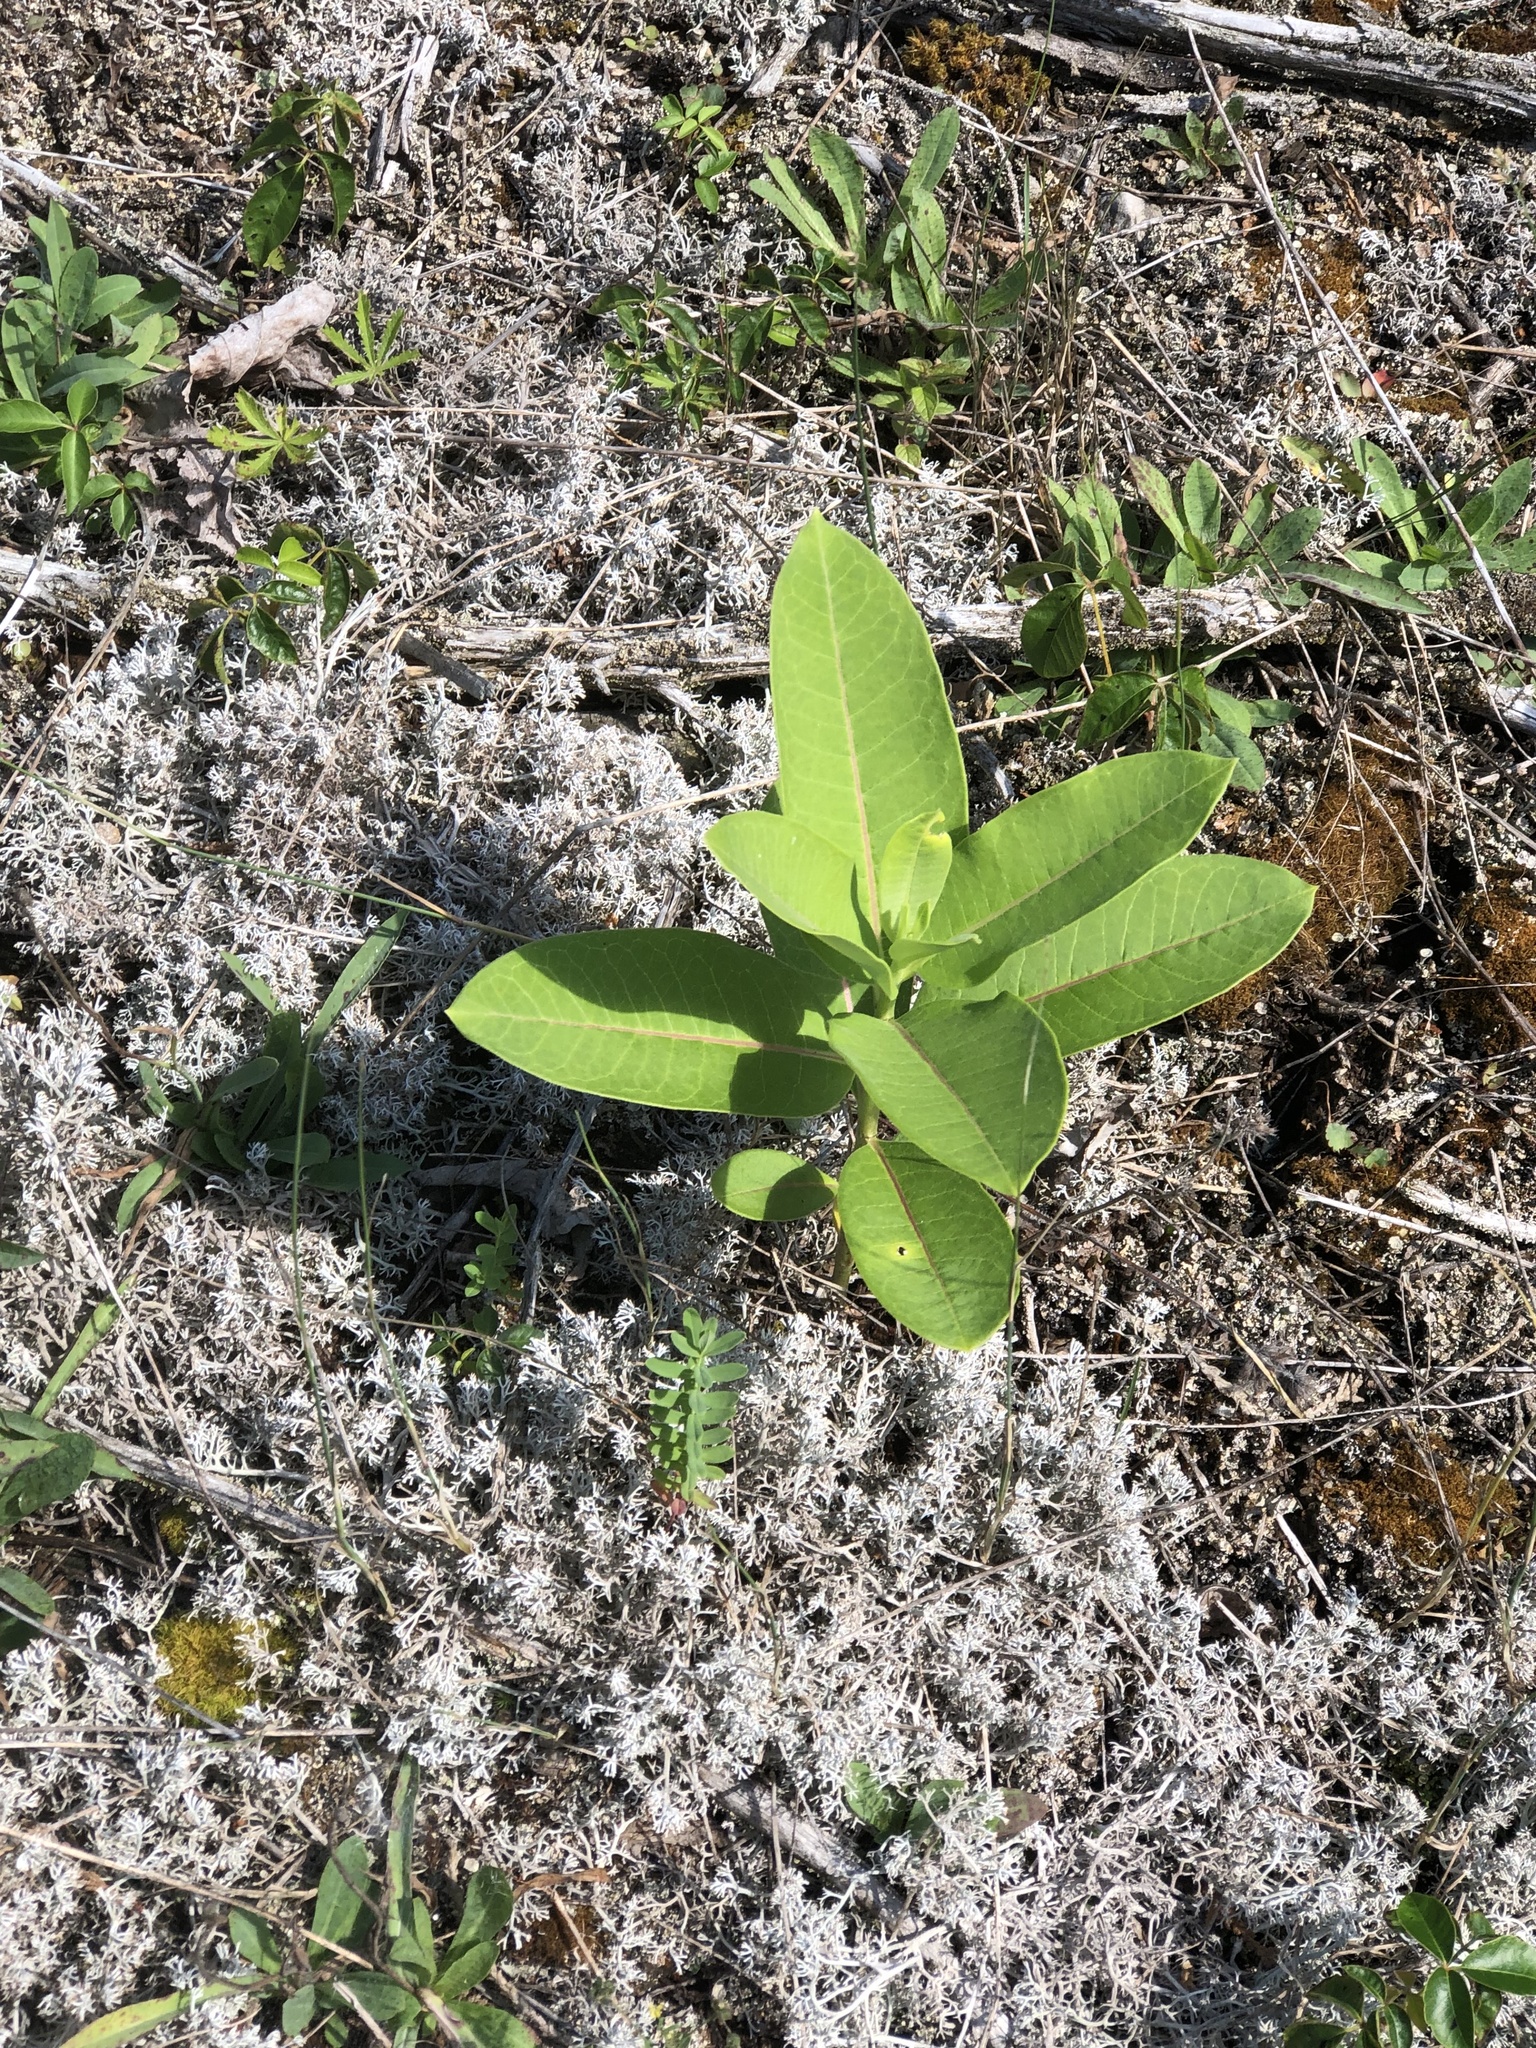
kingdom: Plantae
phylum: Tracheophyta
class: Magnoliopsida
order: Gentianales
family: Apocynaceae
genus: Asclepias
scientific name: Asclepias syriaca
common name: Common milkweed
